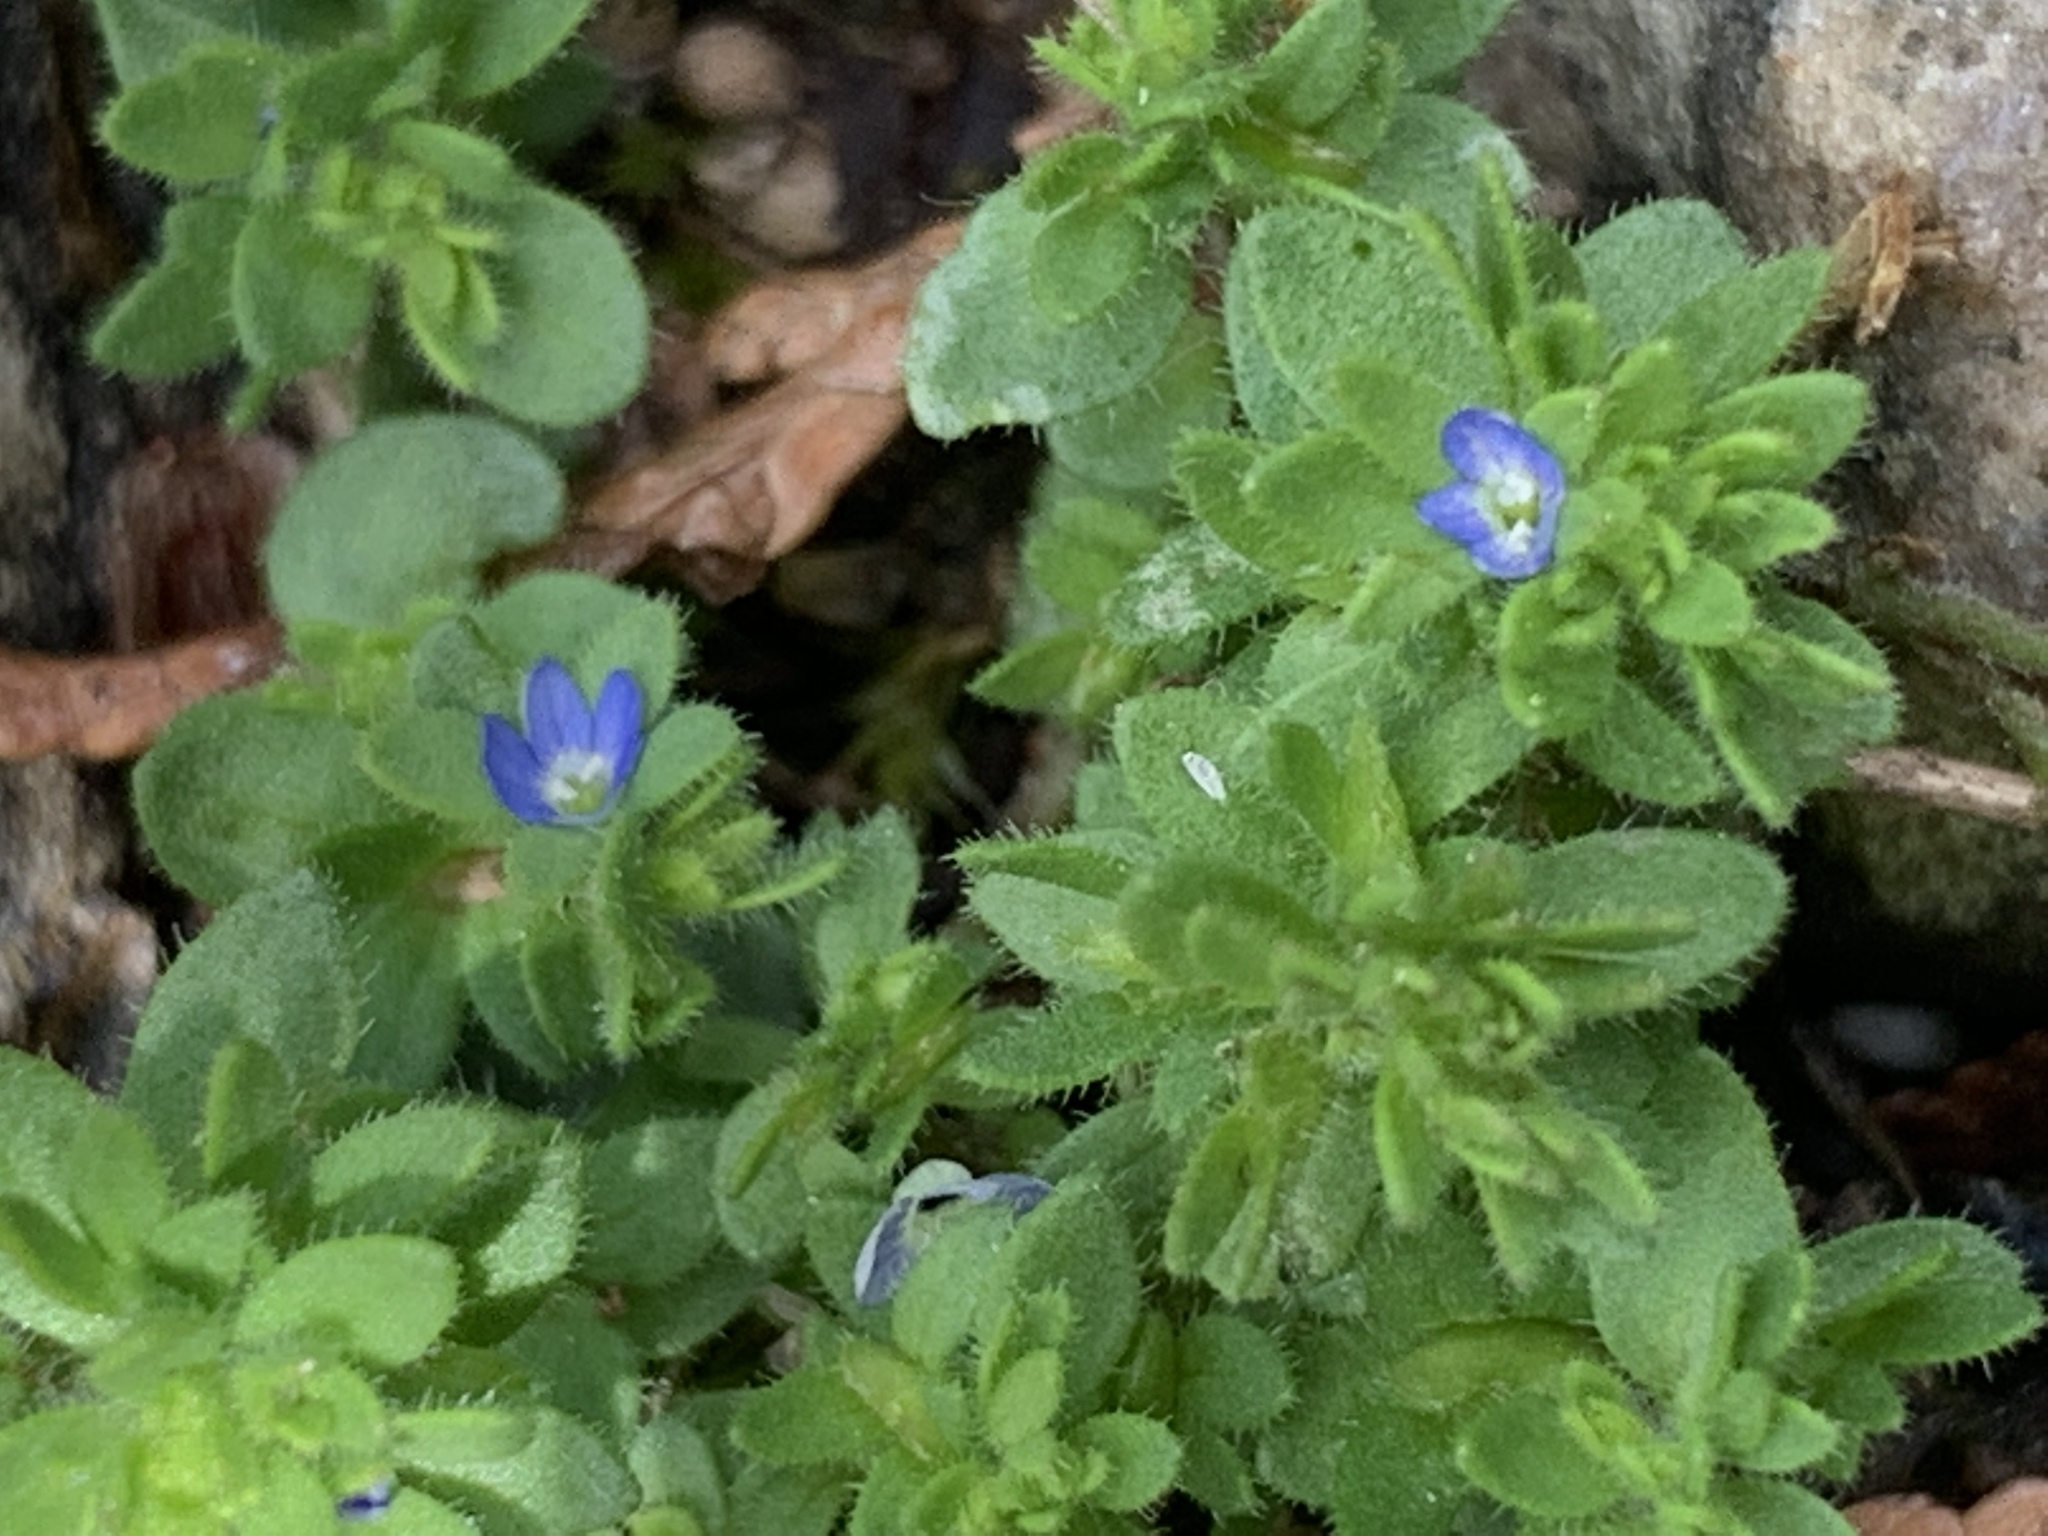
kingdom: Plantae
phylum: Tracheophyta
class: Magnoliopsida
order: Lamiales
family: Plantaginaceae
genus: Veronica
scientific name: Veronica arvensis
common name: Corn speedwell
